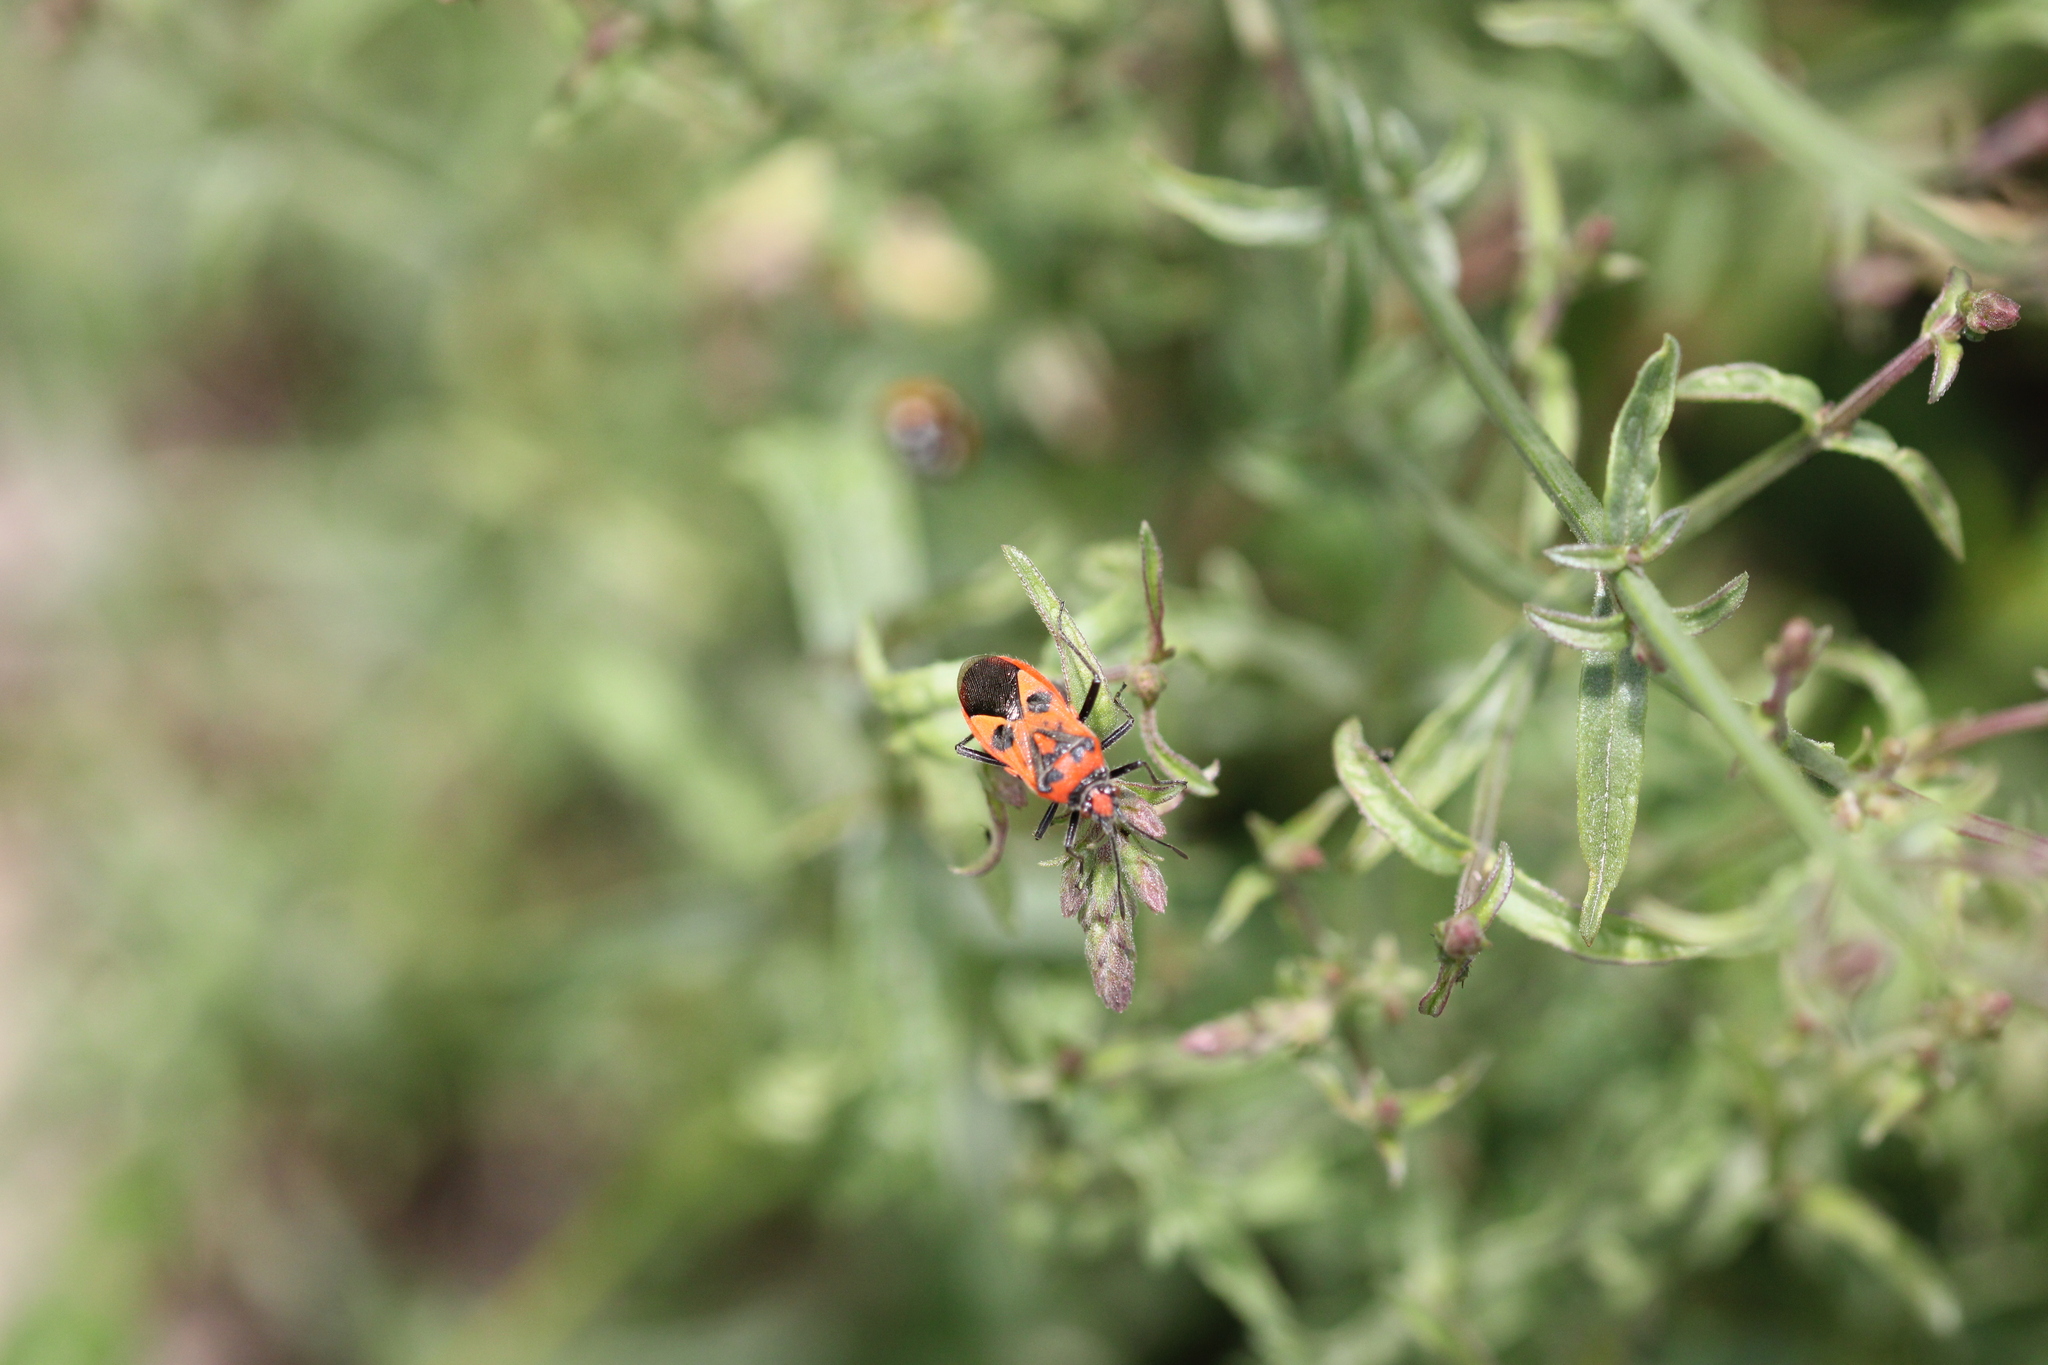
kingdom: Animalia
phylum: Arthropoda
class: Insecta
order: Hemiptera
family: Rhopalidae
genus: Corizus
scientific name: Corizus hyoscyami
